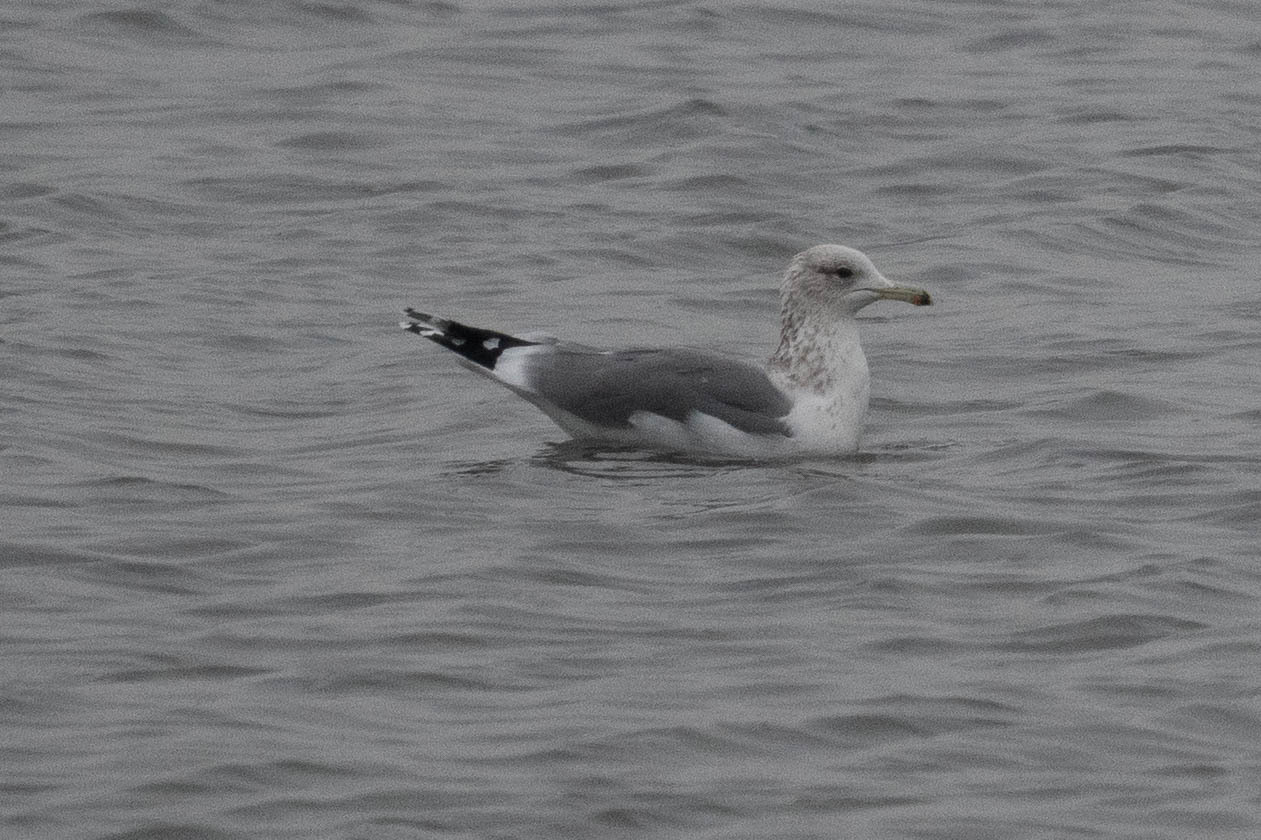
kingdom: Animalia
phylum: Chordata
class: Aves
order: Charadriiformes
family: Laridae
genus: Larus
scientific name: Larus californicus
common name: California gull
